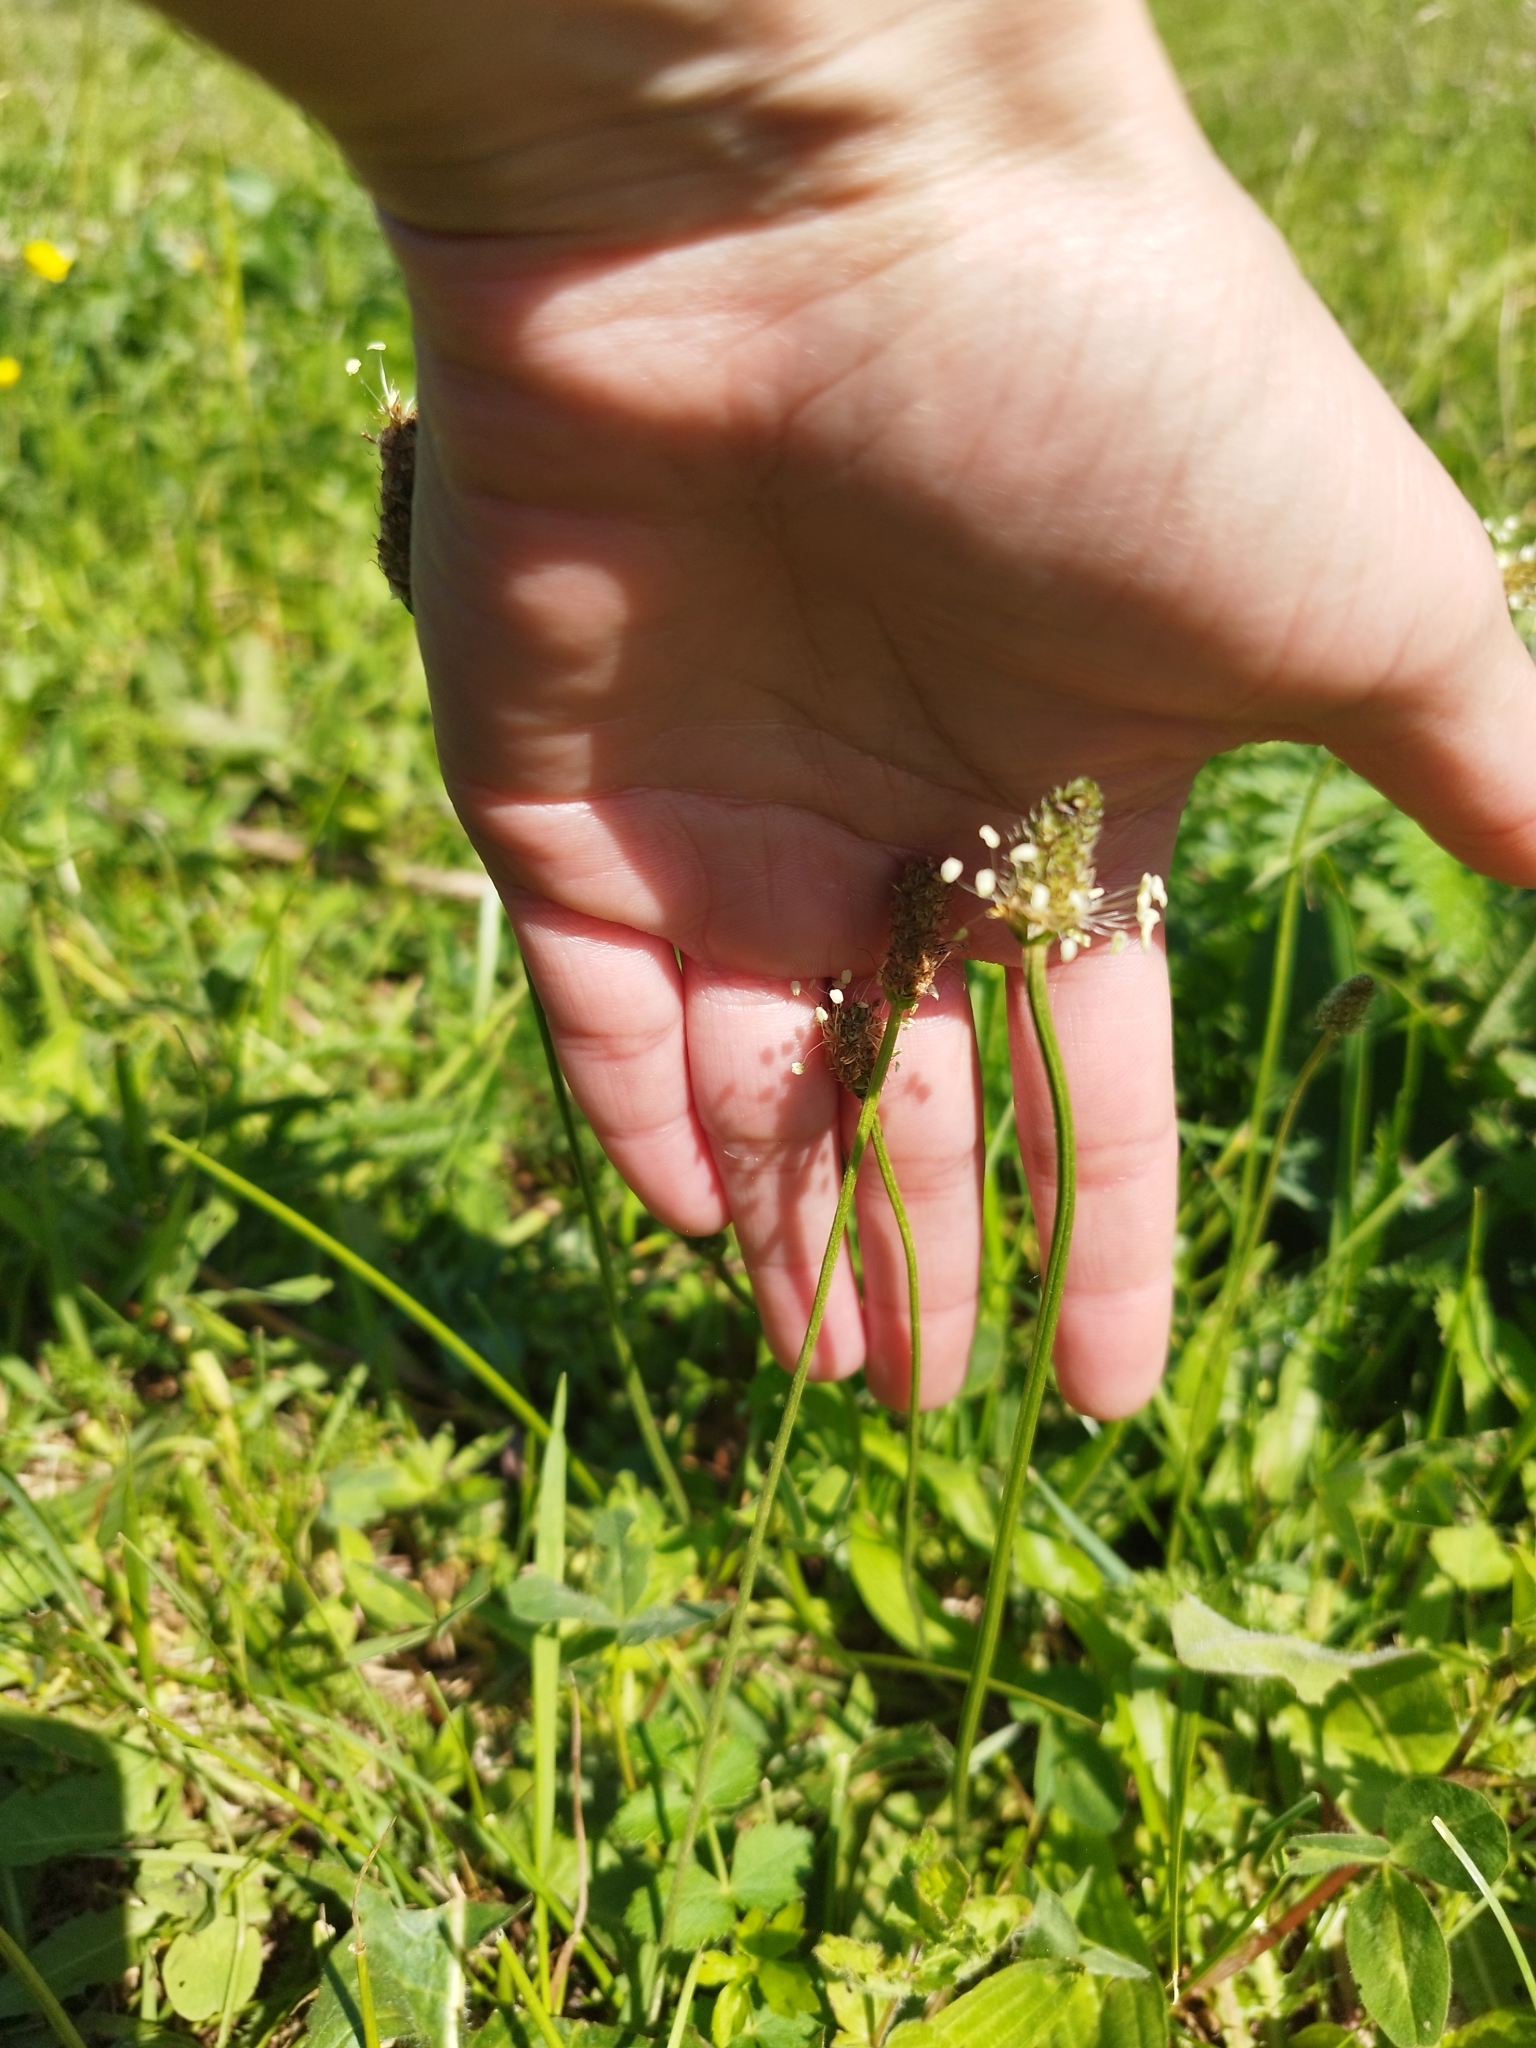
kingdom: Plantae
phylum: Tracheophyta
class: Magnoliopsida
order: Lamiales
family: Plantaginaceae
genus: Plantago
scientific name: Plantago lanceolata
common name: Ribwort plantain
